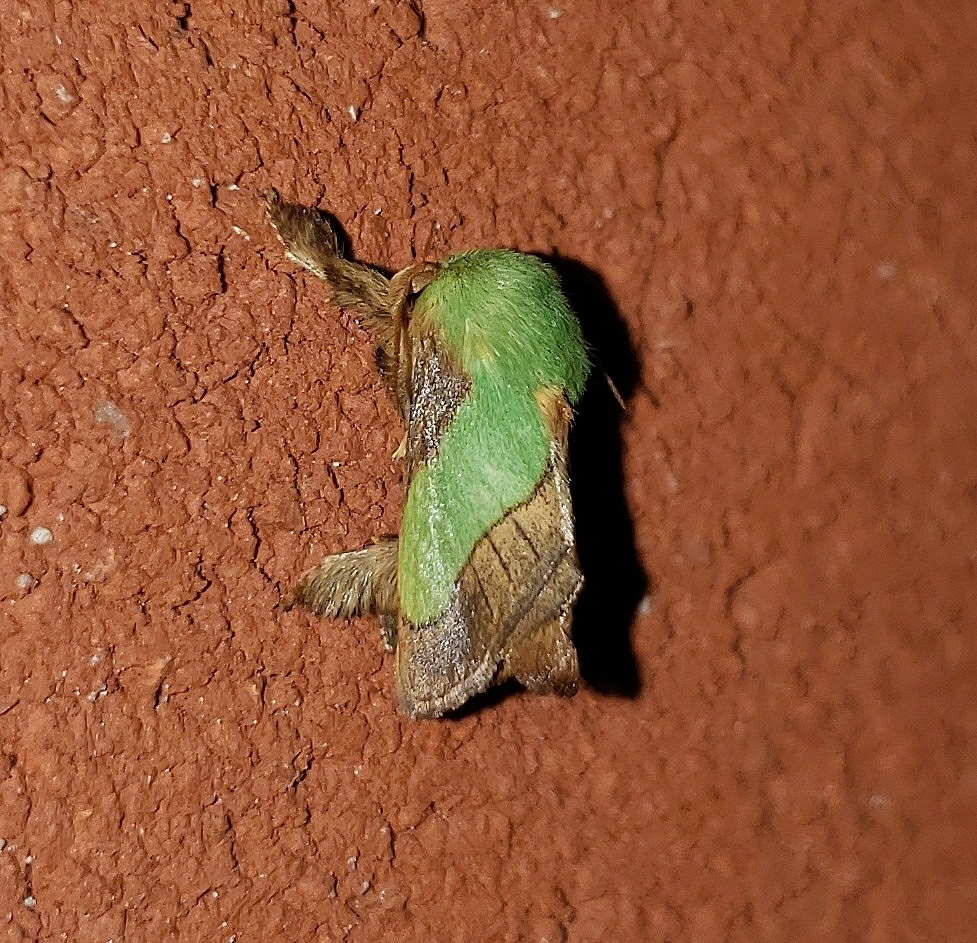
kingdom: Animalia
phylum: Arthropoda
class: Insecta
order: Lepidoptera
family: Limacodidae
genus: Parasa
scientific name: Parasa chloris
